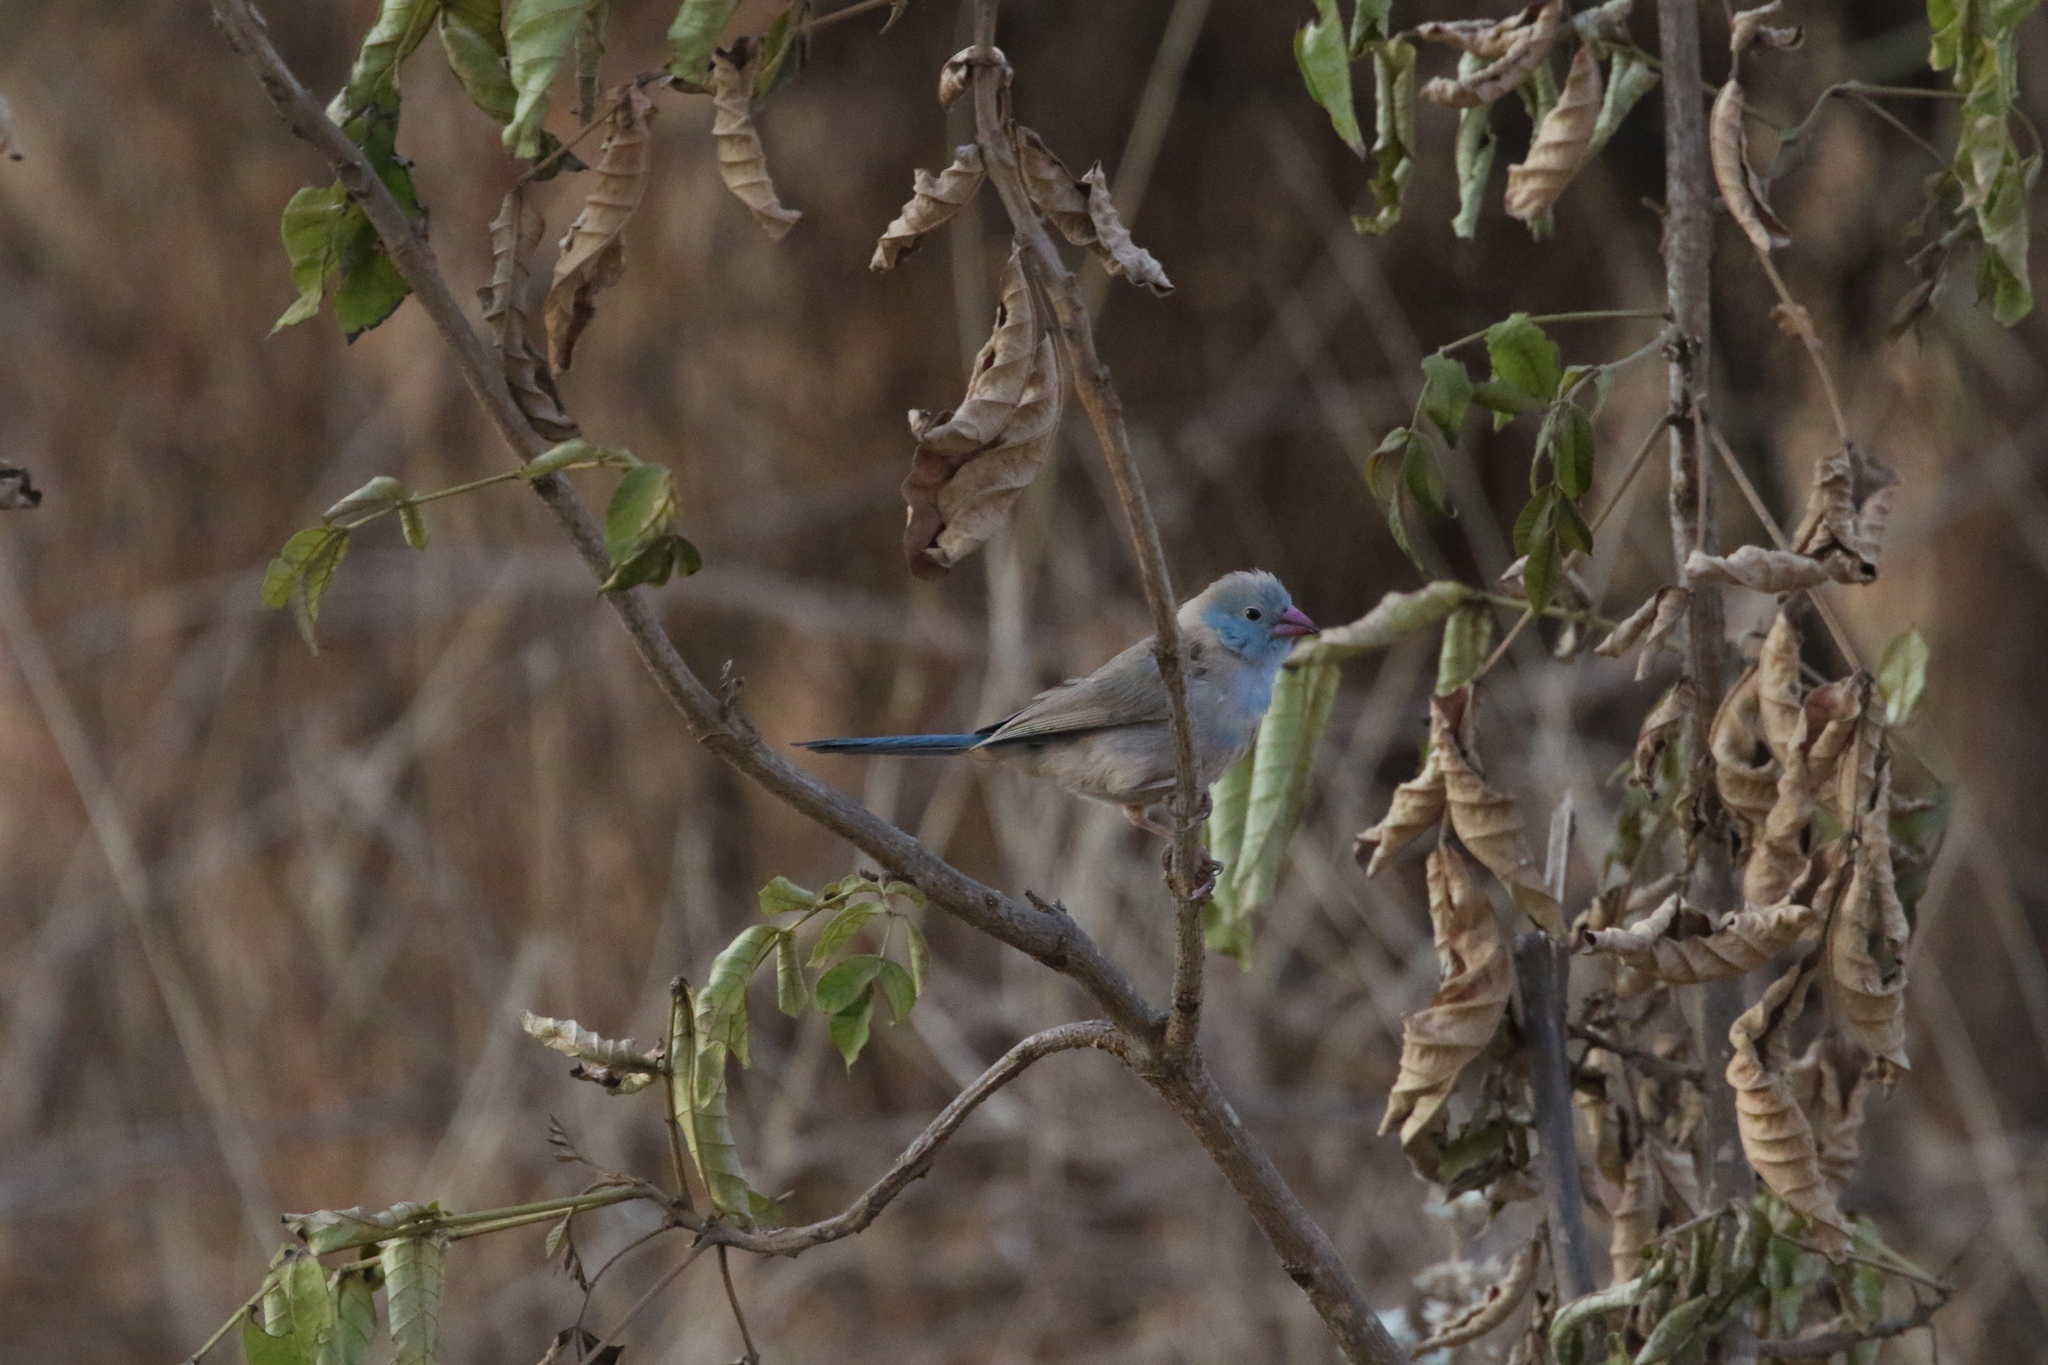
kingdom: Animalia
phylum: Chordata
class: Aves
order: Passeriformes
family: Estrildidae
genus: Uraeginthus
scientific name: Uraeginthus cyanocephalus
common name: Blue-capped cordon-bleu
